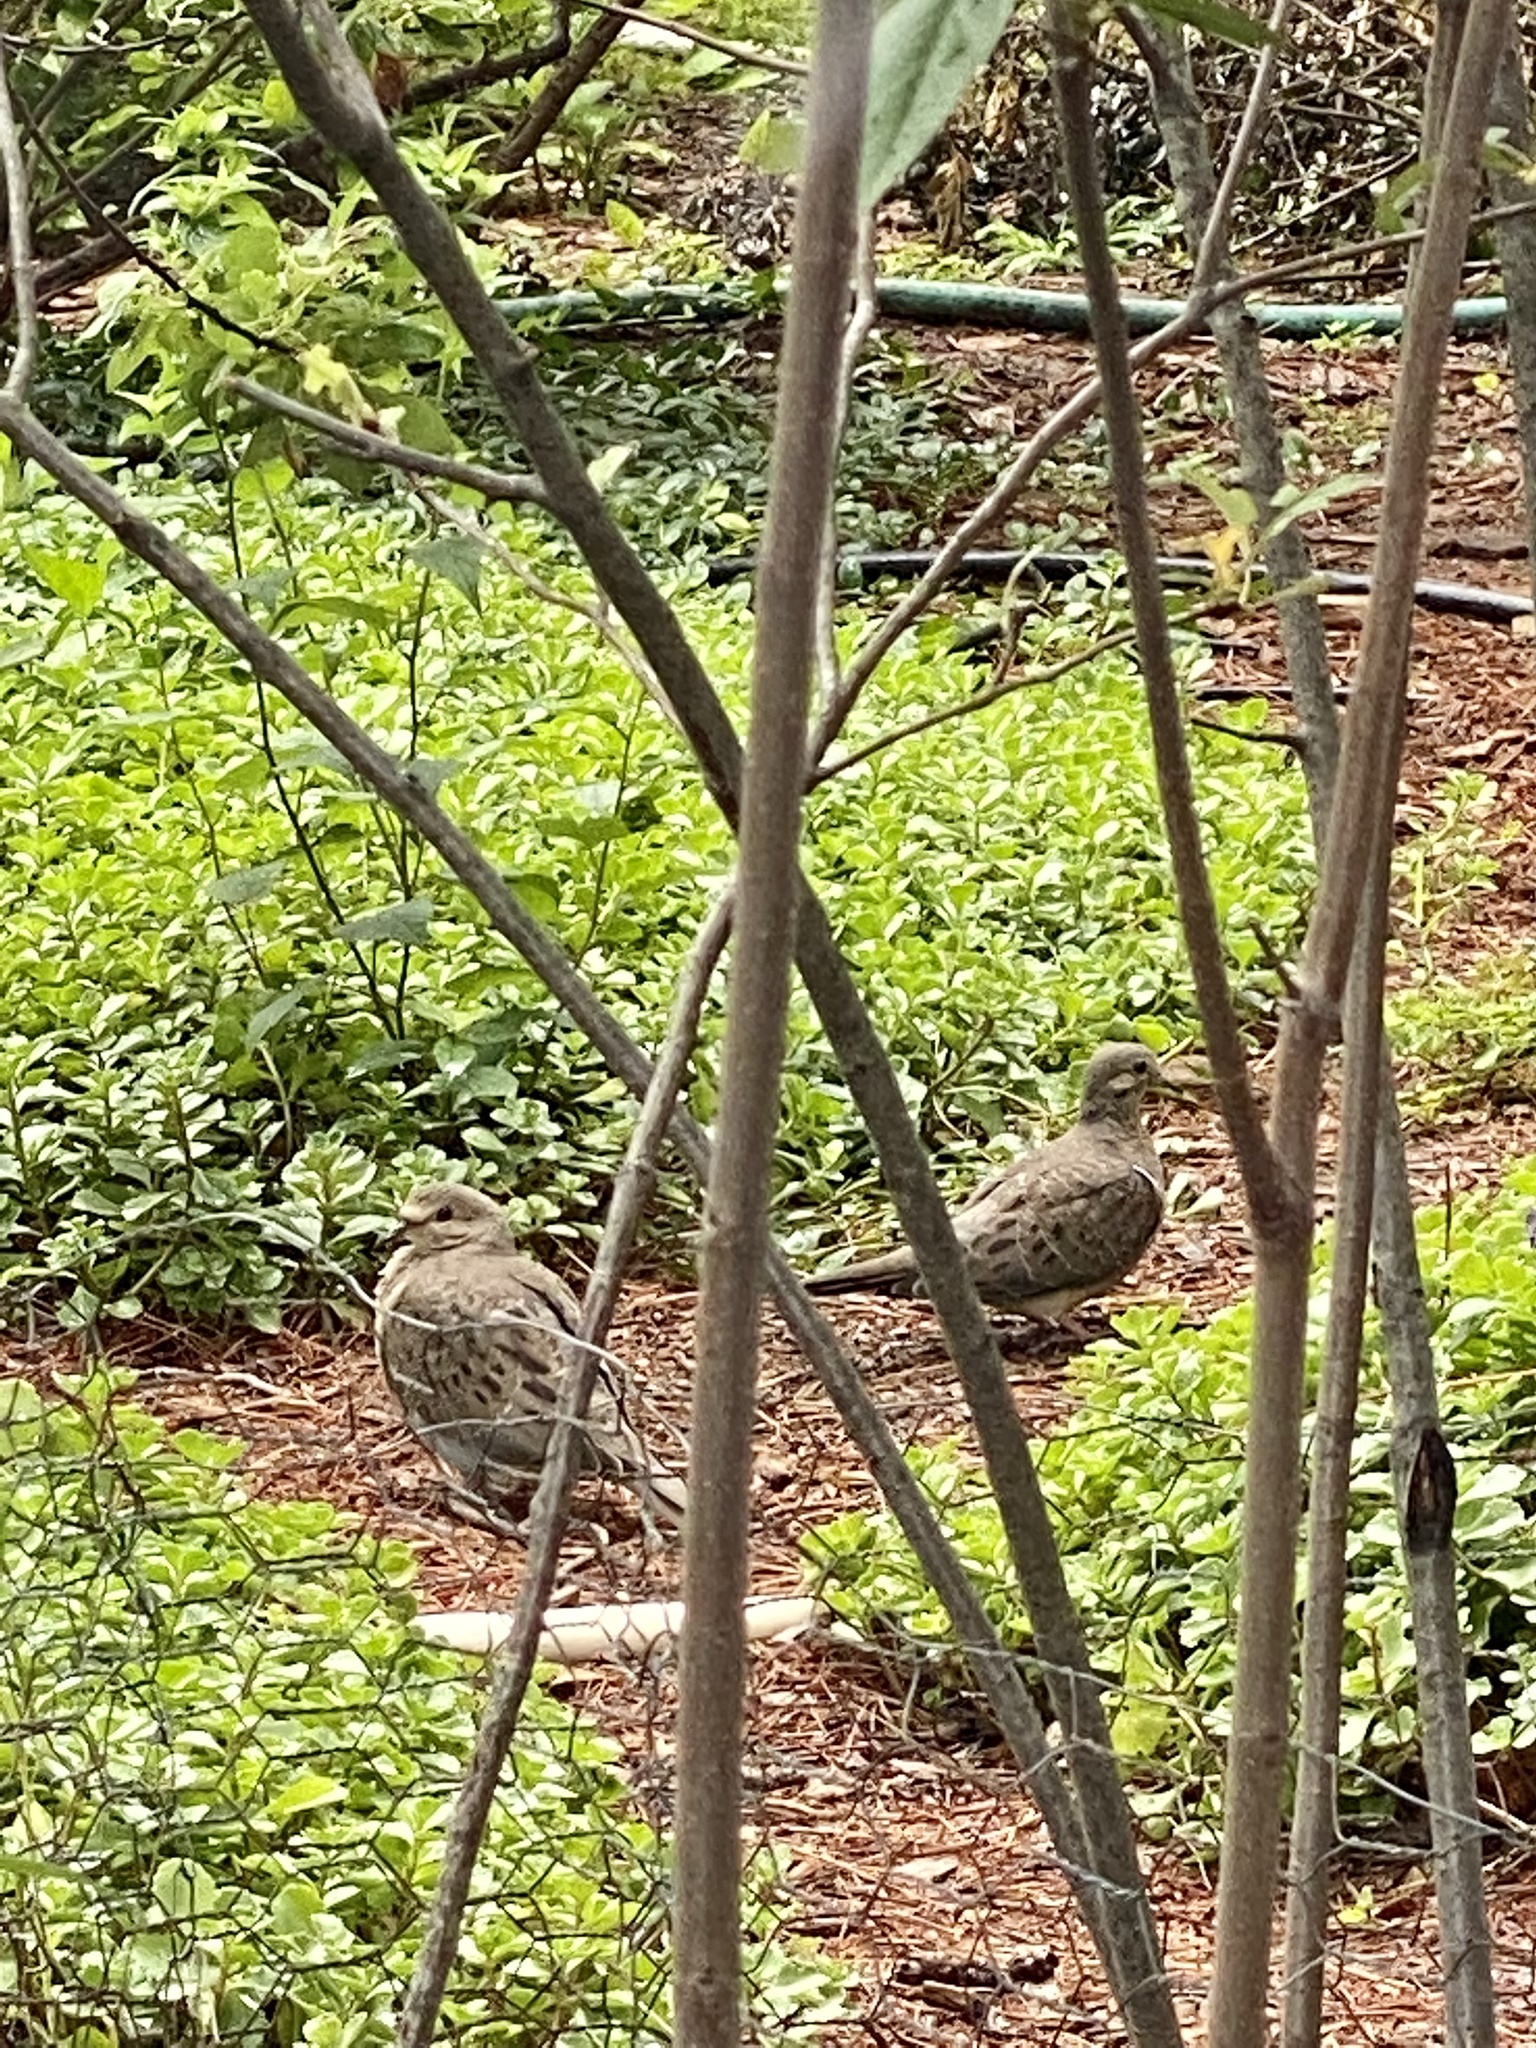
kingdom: Animalia
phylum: Chordata
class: Aves
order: Columbiformes
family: Columbidae
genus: Zenaida
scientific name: Zenaida macroura
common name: Mourning dove
